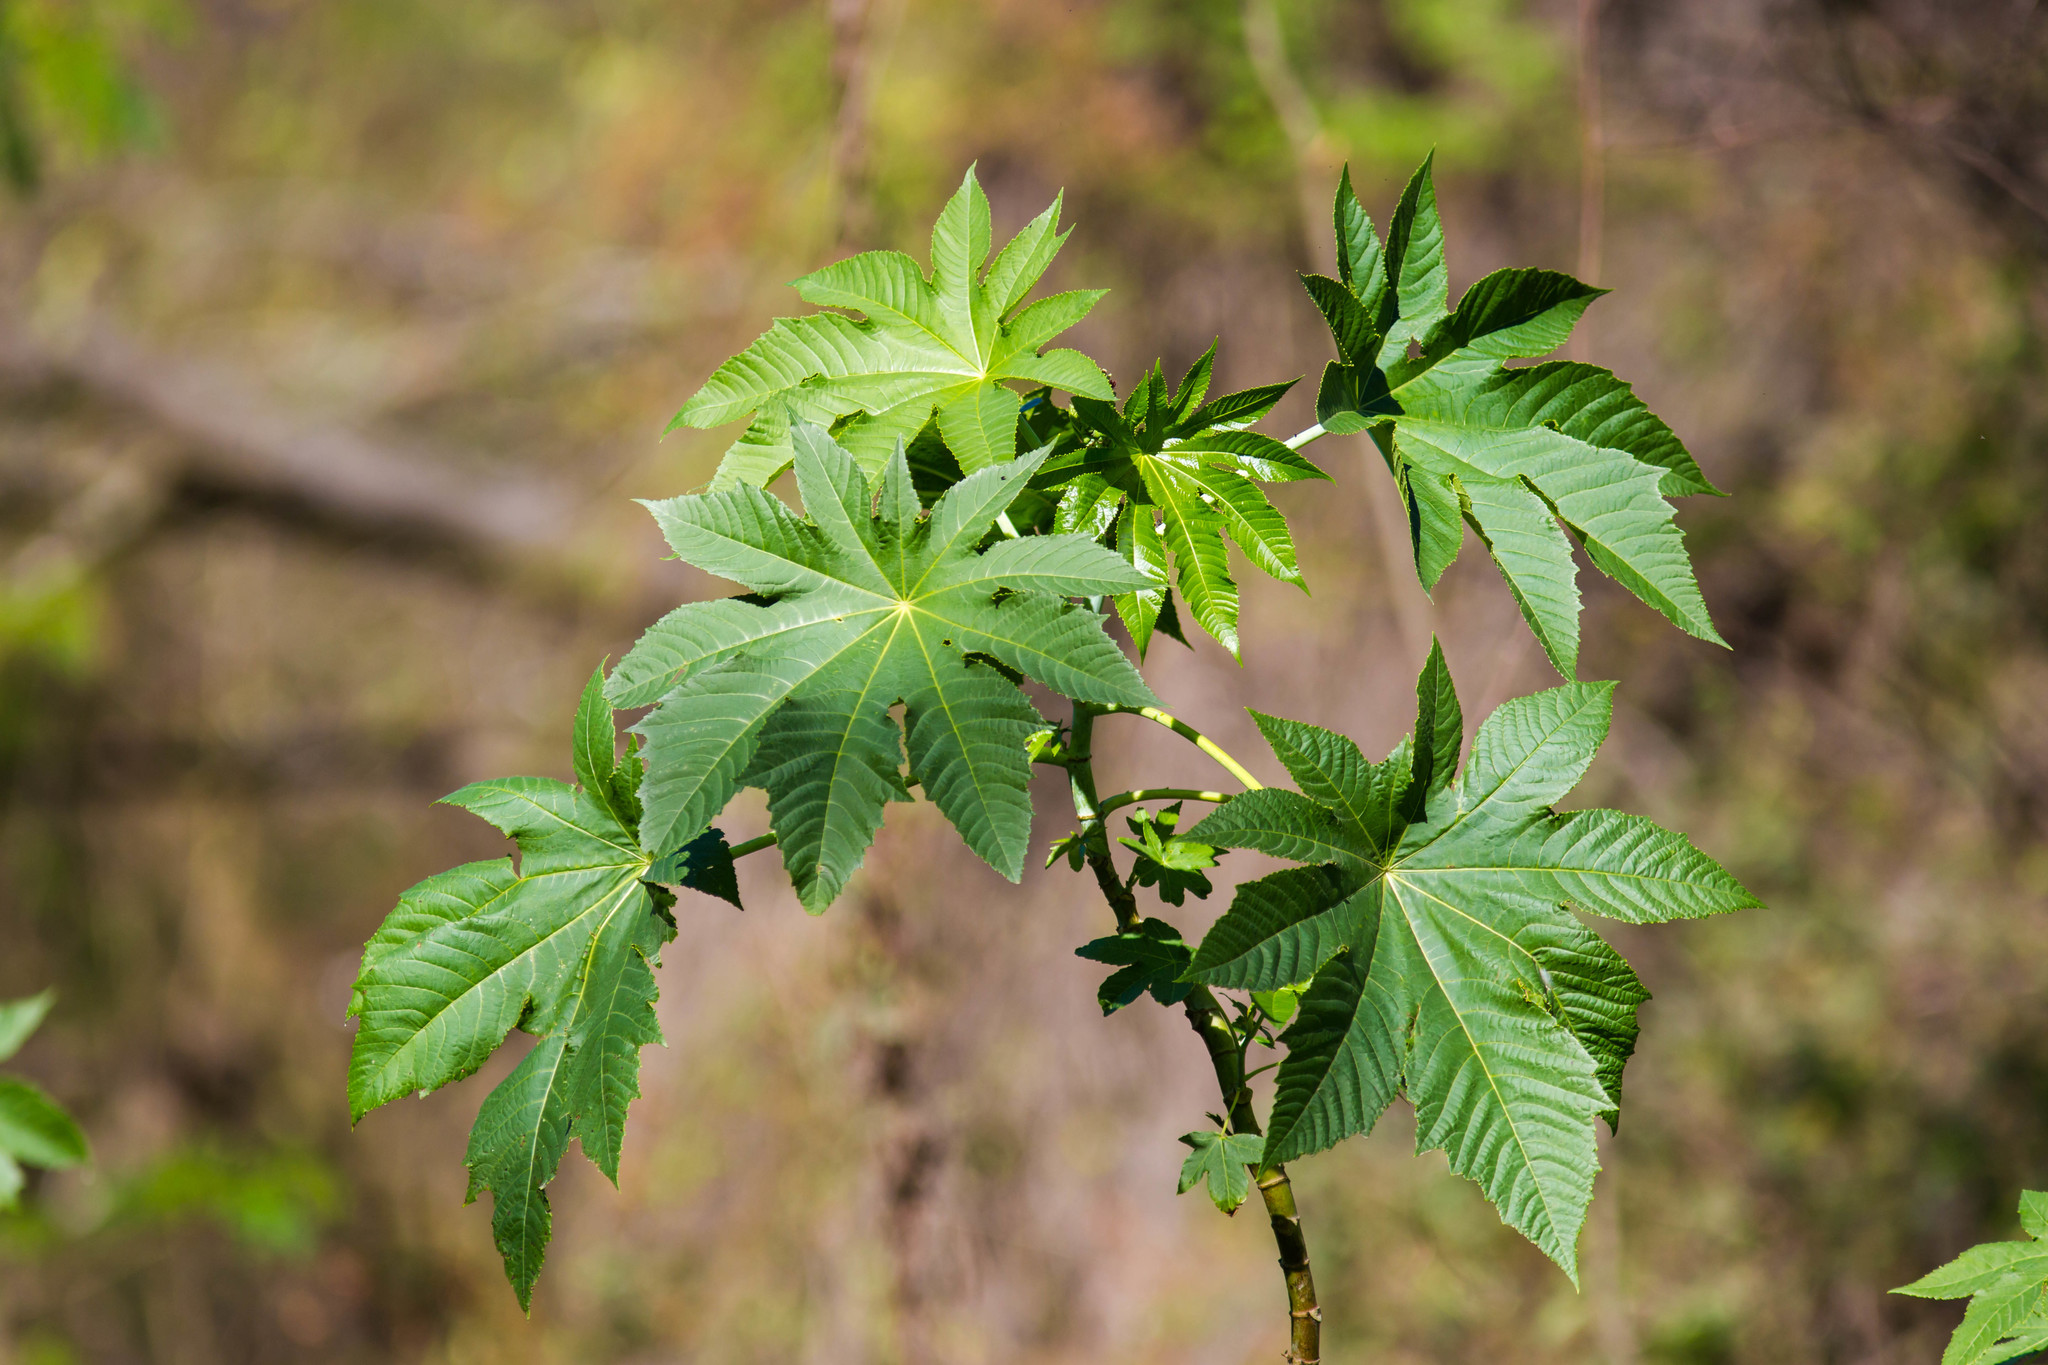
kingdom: Plantae
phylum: Tracheophyta
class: Magnoliopsida
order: Malpighiales
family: Euphorbiaceae
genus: Ricinus
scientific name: Ricinus communis
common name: Castor-oil-plant
